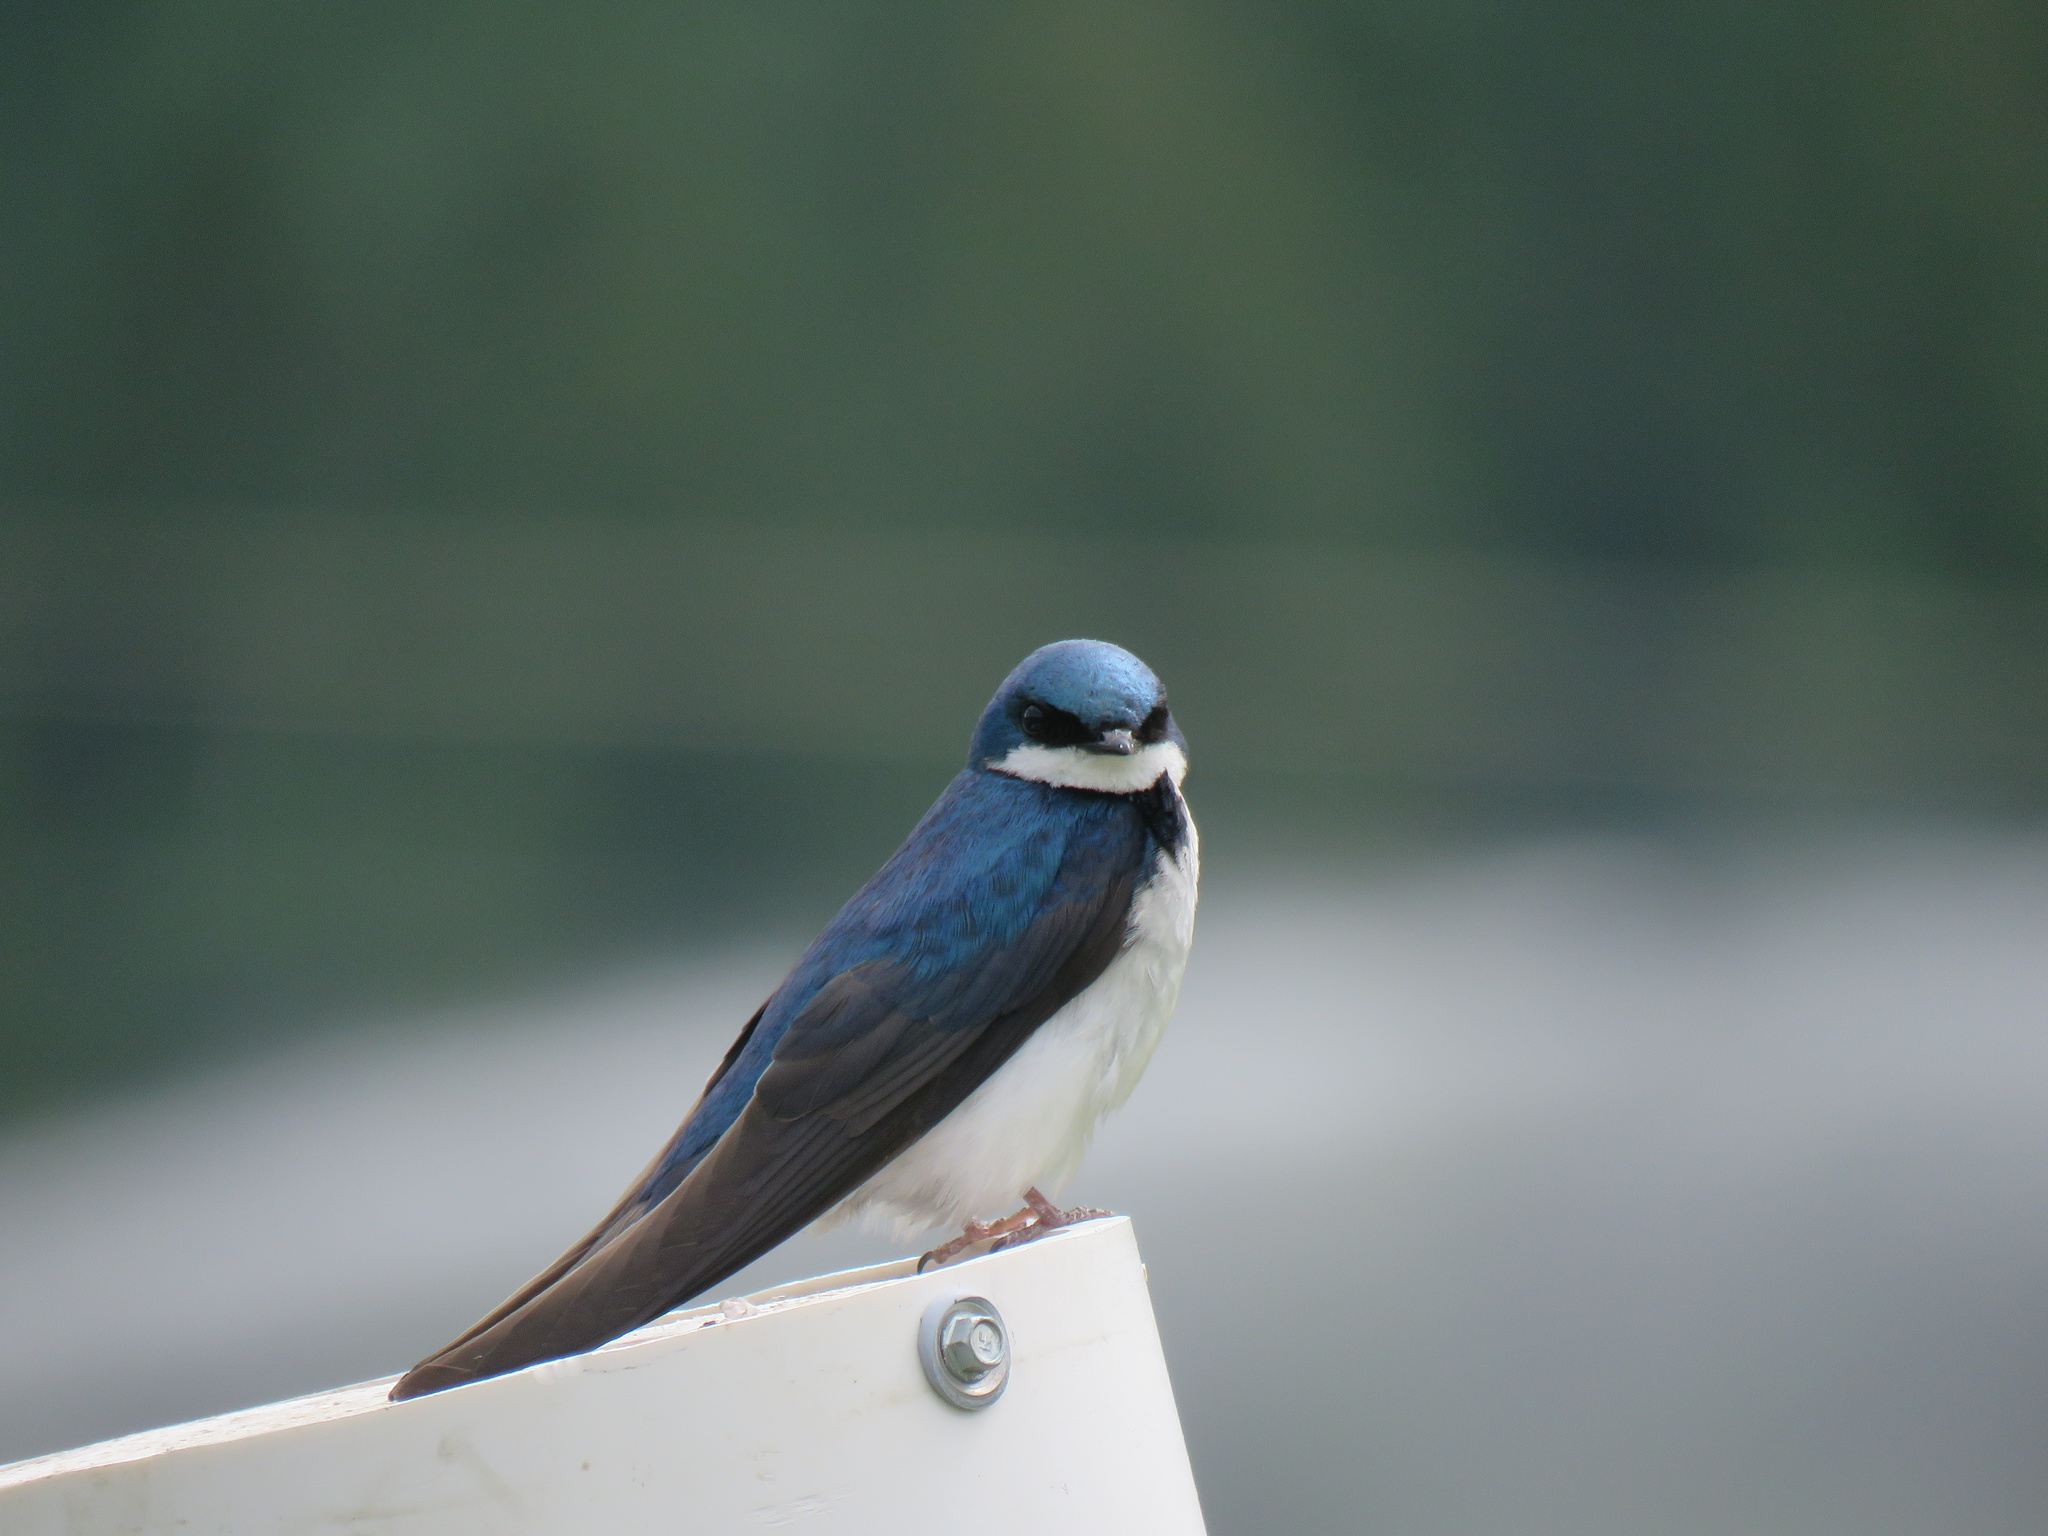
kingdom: Animalia
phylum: Chordata
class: Aves
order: Passeriformes
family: Hirundinidae
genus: Tachycineta
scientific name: Tachycineta bicolor
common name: Tree swallow
